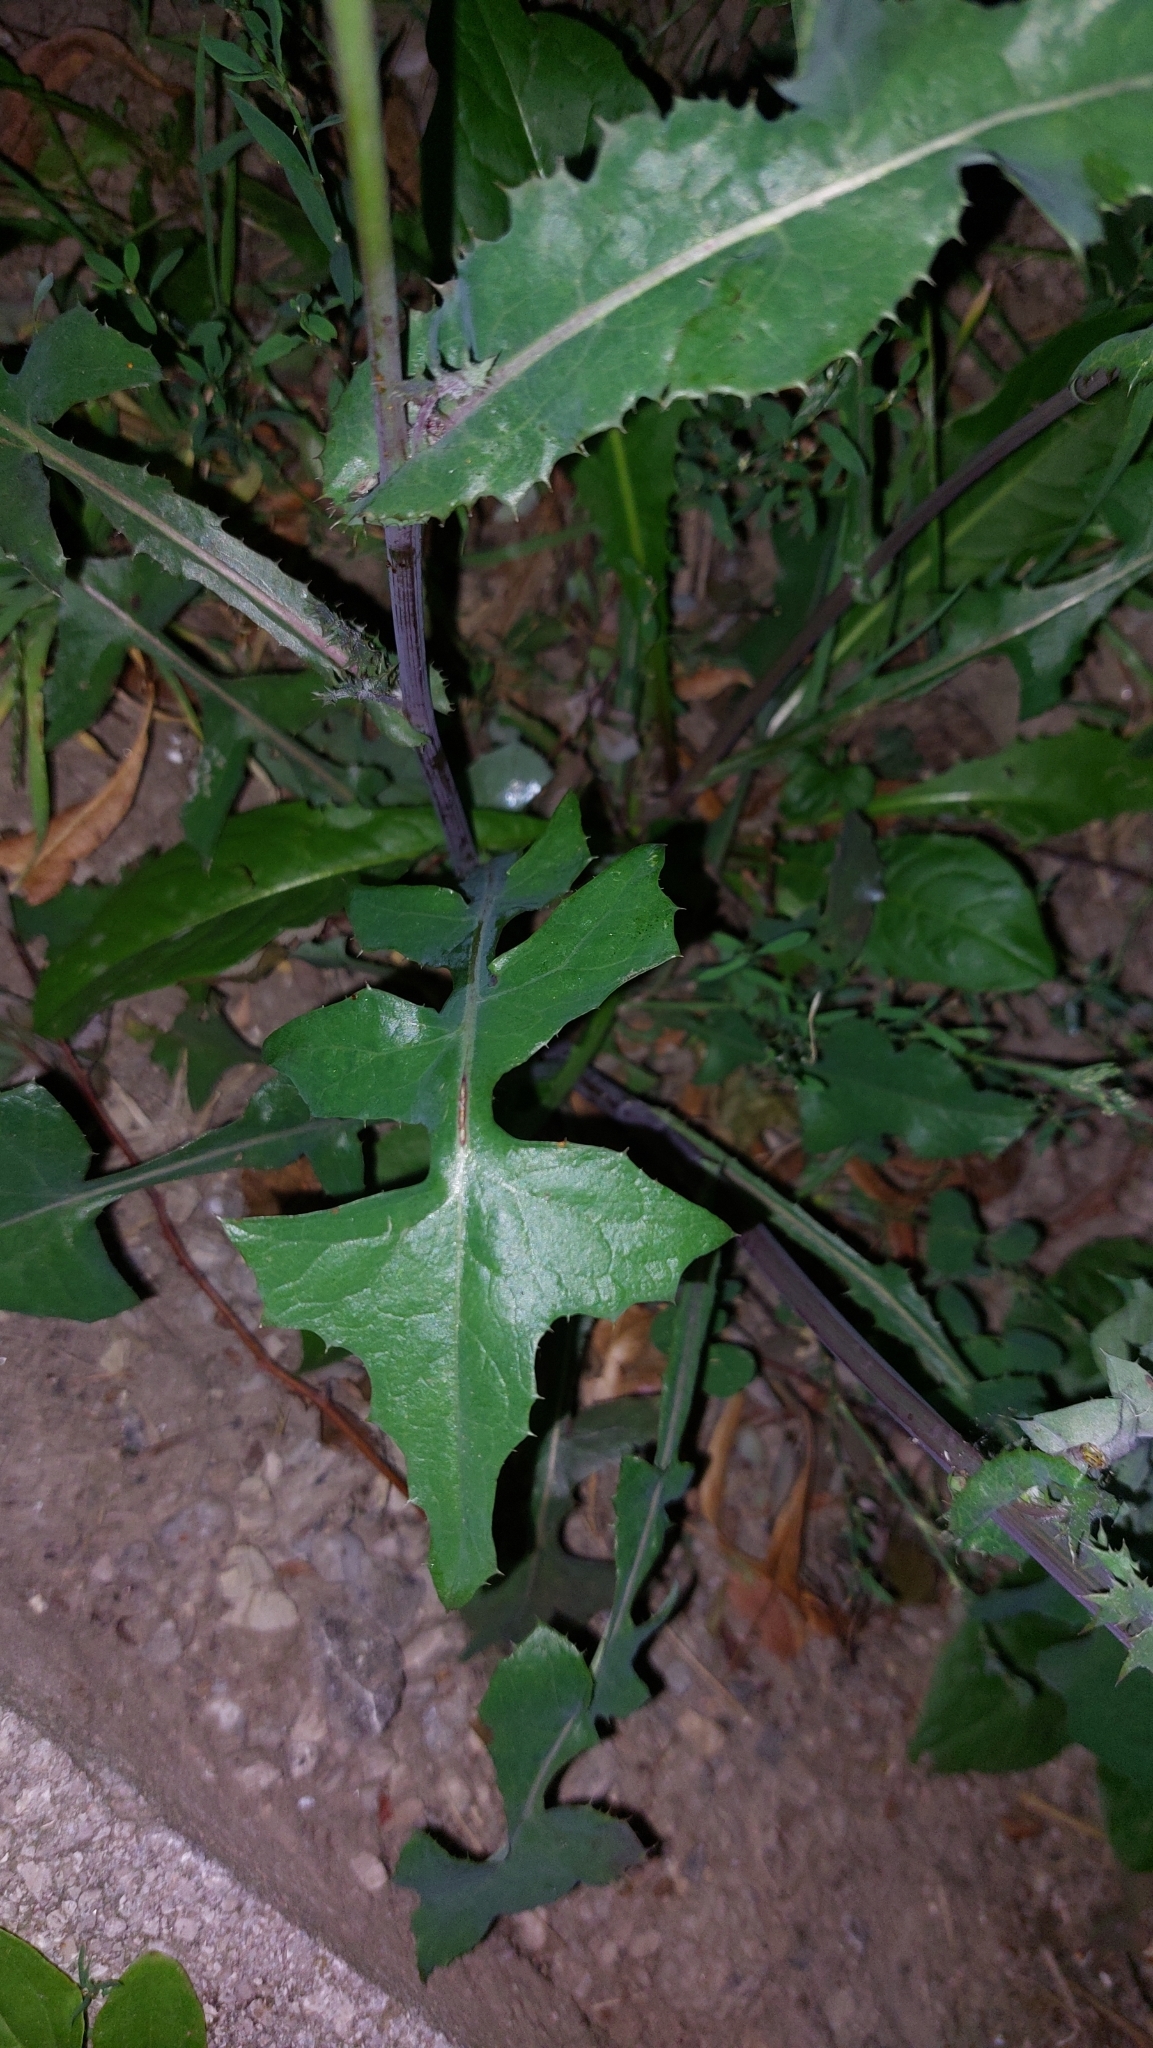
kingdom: Plantae
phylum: Tracheophyta
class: Magnoliopsida
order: Asterales
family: Asteraceae
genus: Sonchus
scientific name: Sonchus oleraceus
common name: Common sowthistle
